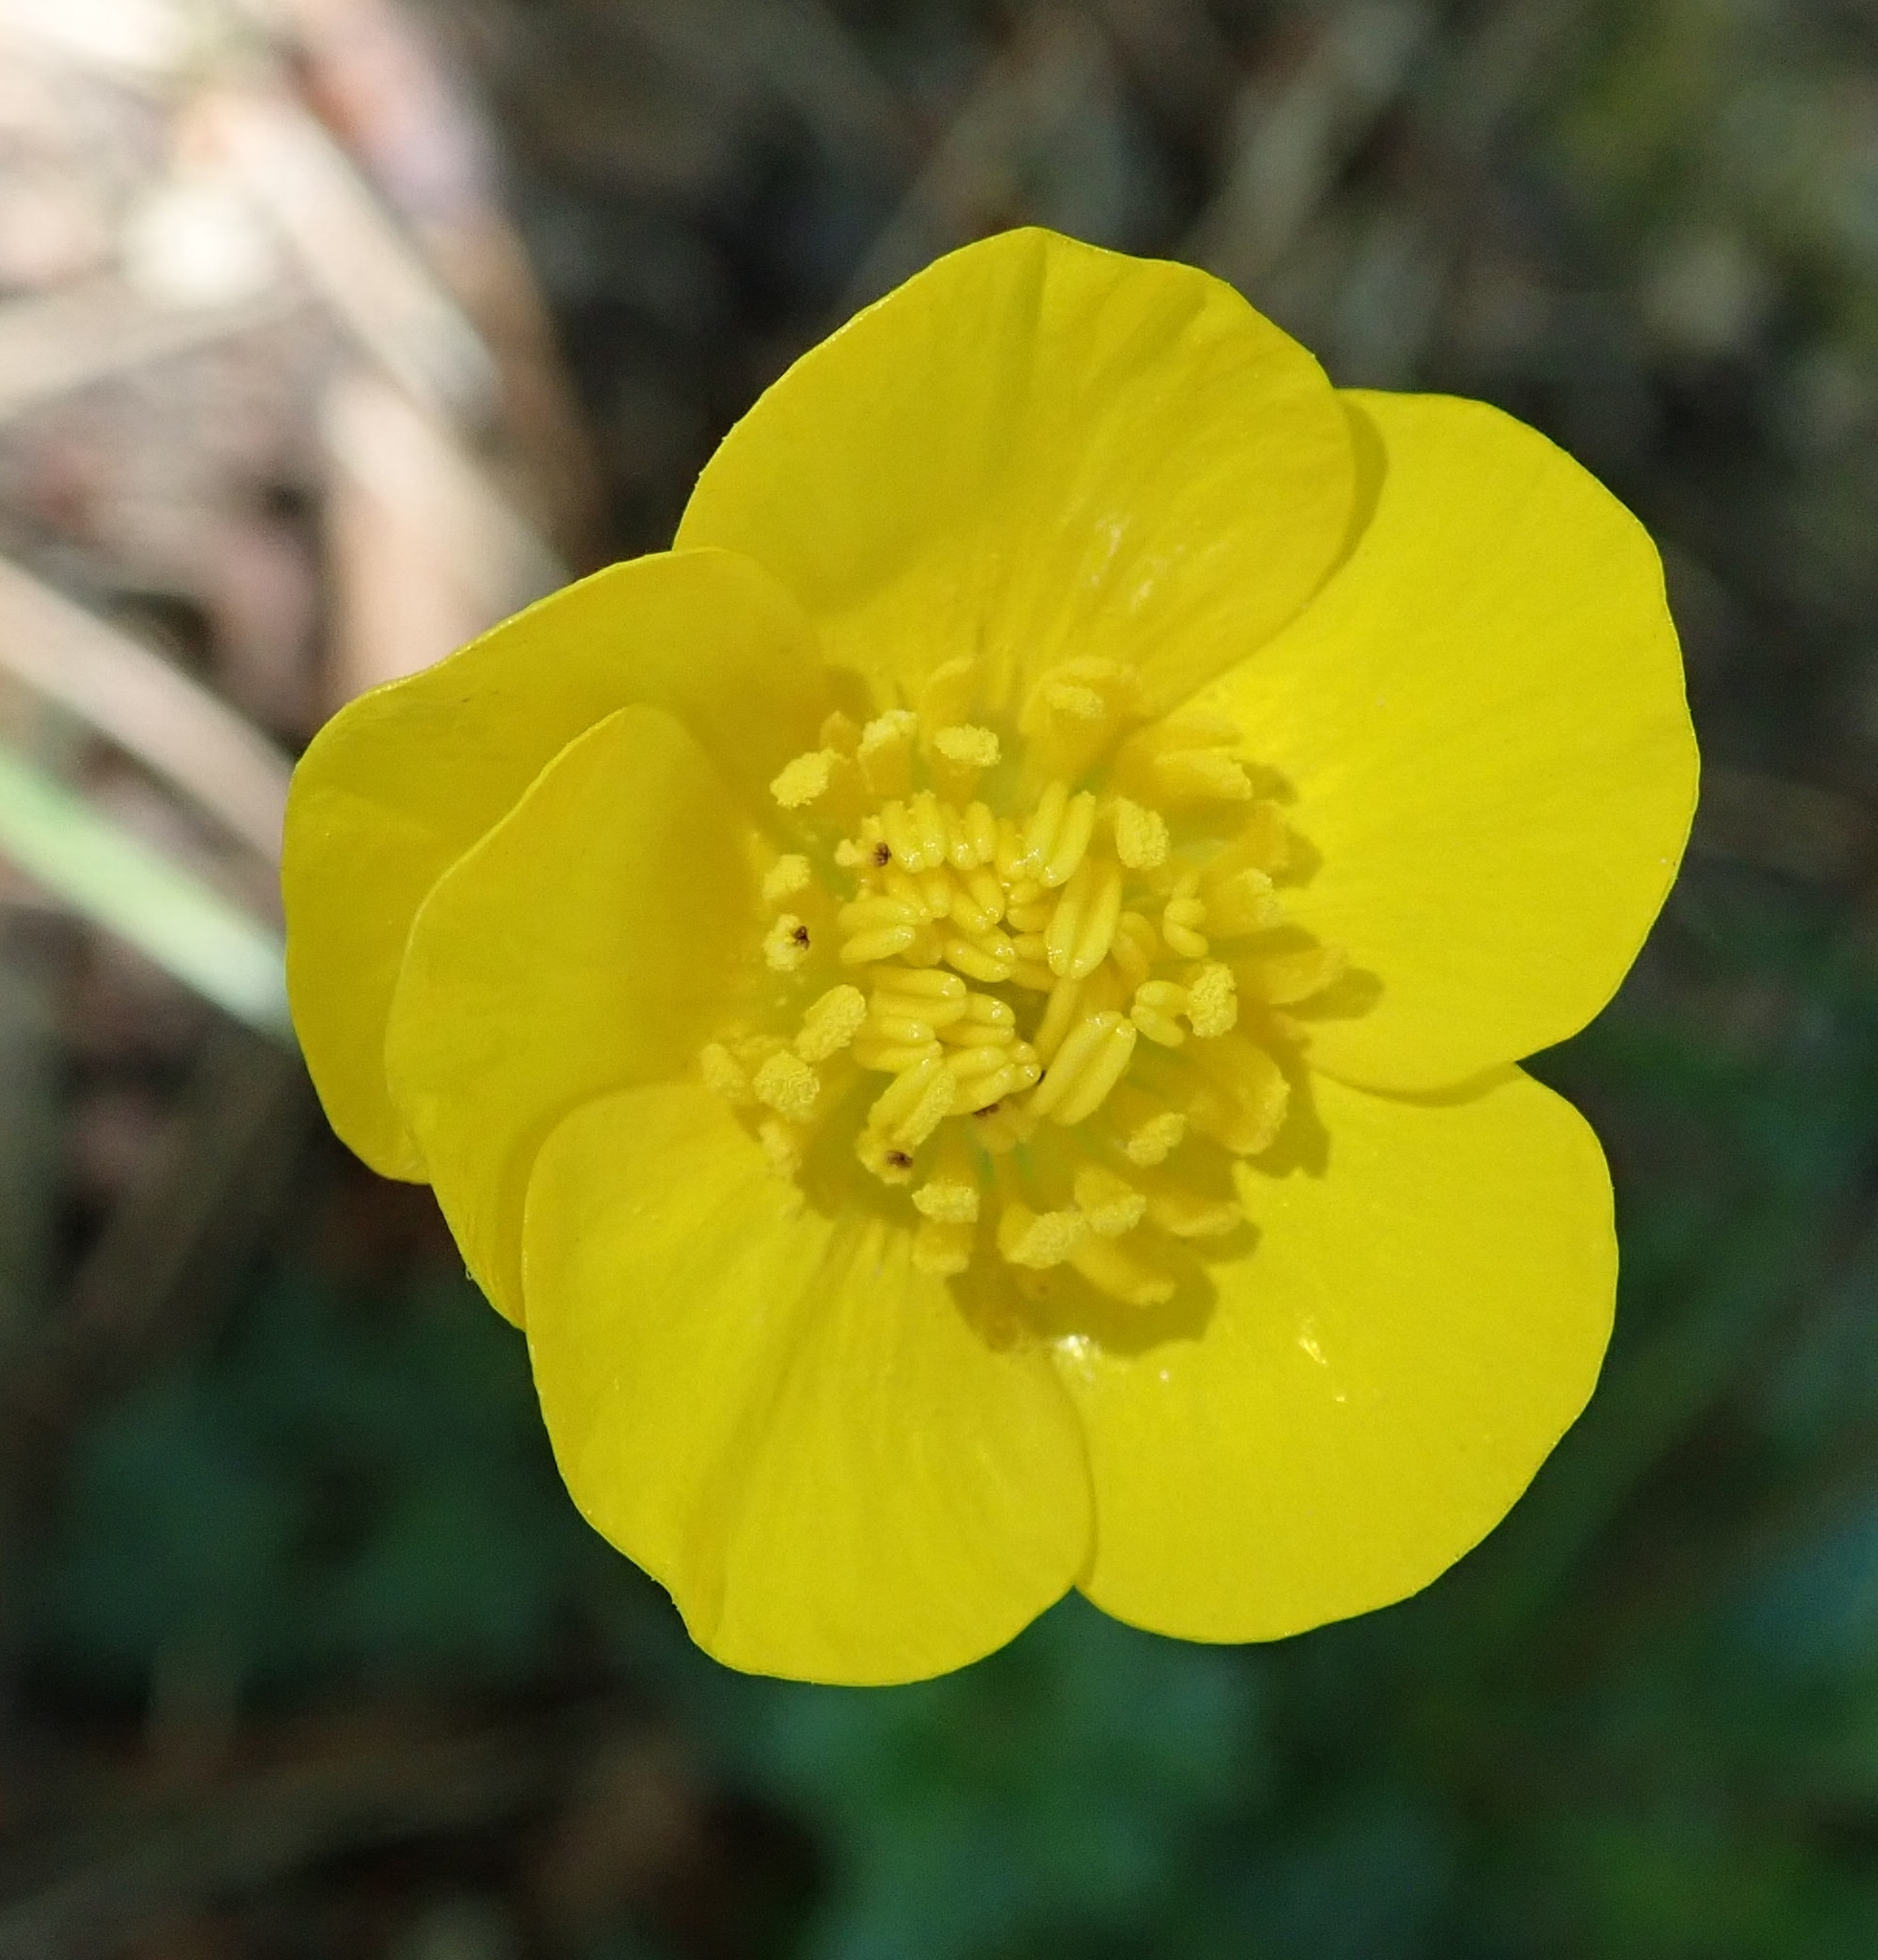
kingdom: Plantae
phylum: Tracheophyta
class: Magnoliopsida
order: Ranunculales
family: Ranunculaceae
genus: Ranunculus
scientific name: Ranunculus bulbosus
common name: Bulbous buttercup
